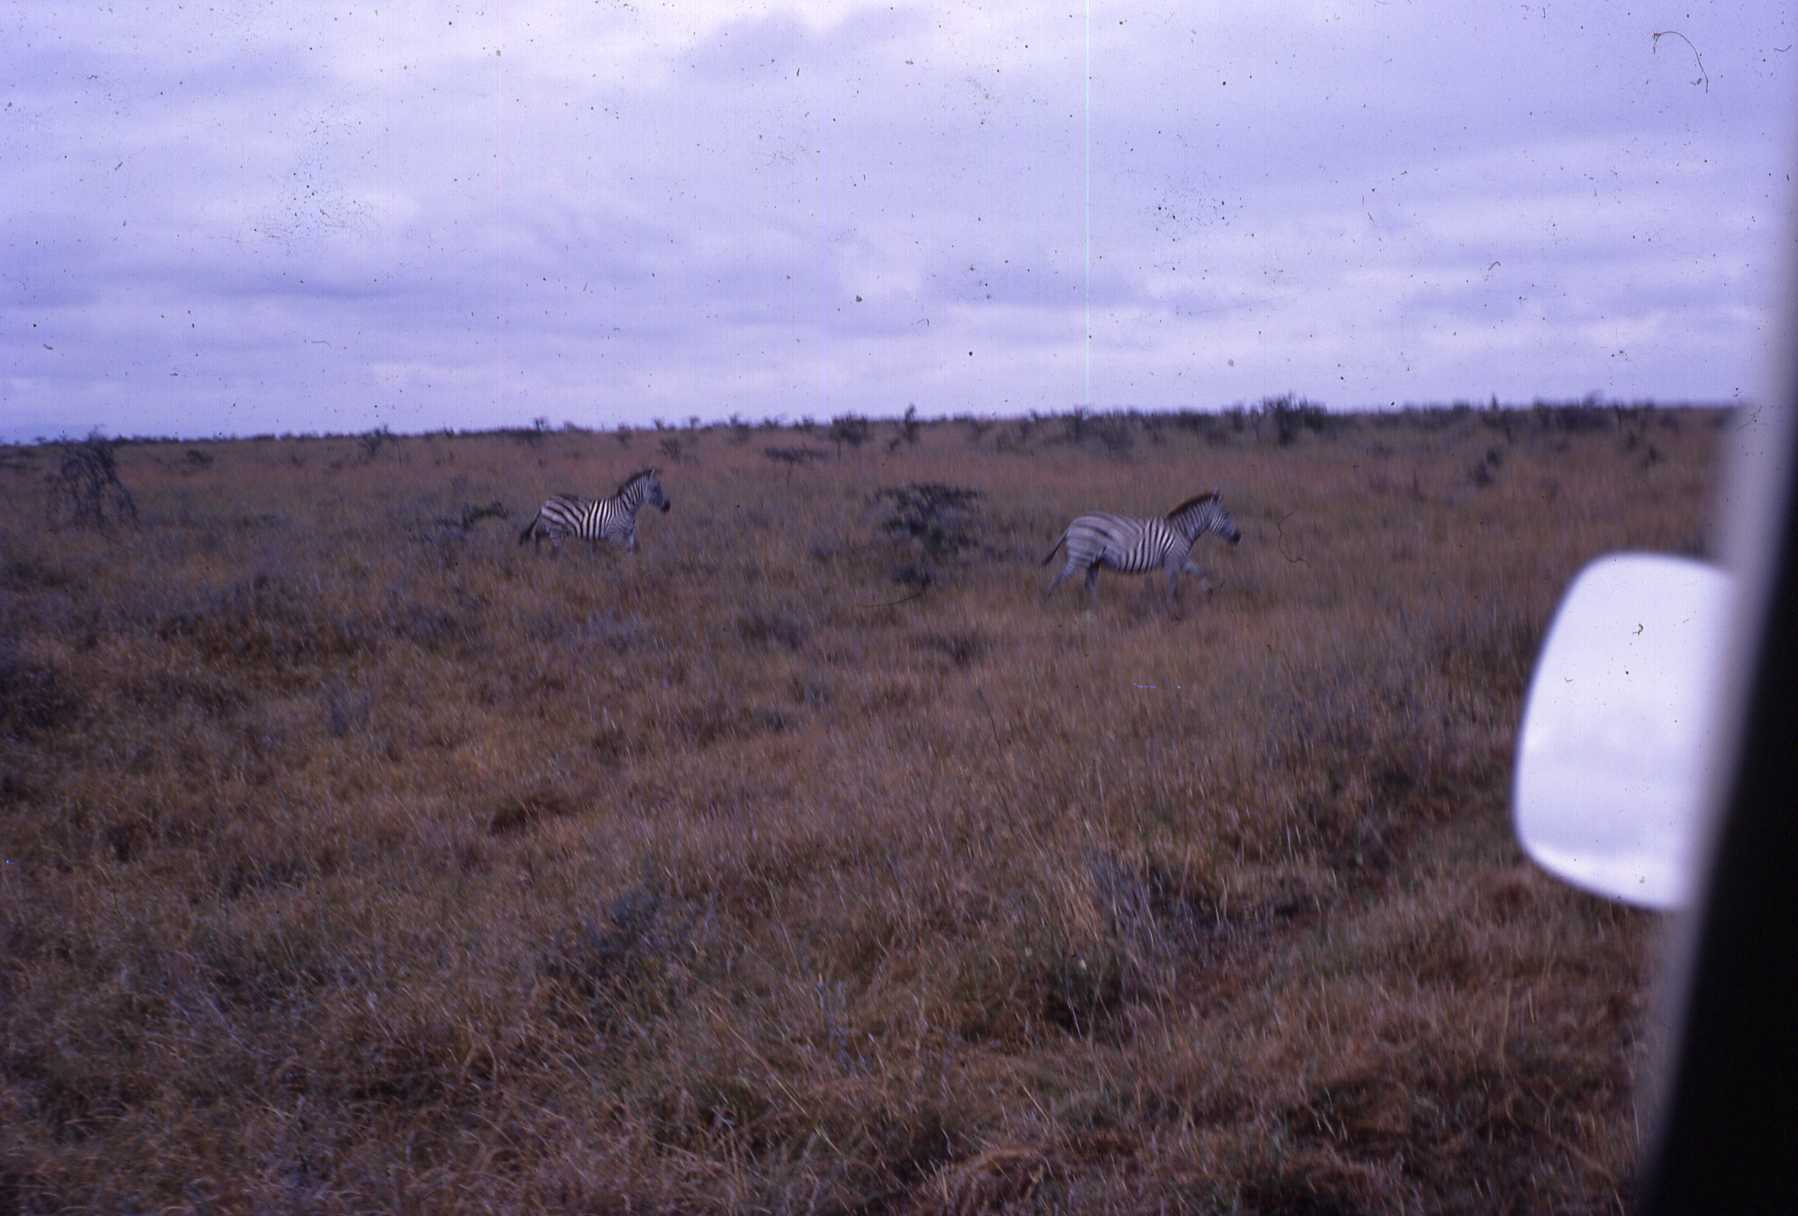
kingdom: Animalia
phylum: Chordata
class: Mammalia
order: Perissodactyla
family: Equidae
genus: Equus
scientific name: Equus quagga
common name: Plains zebra
